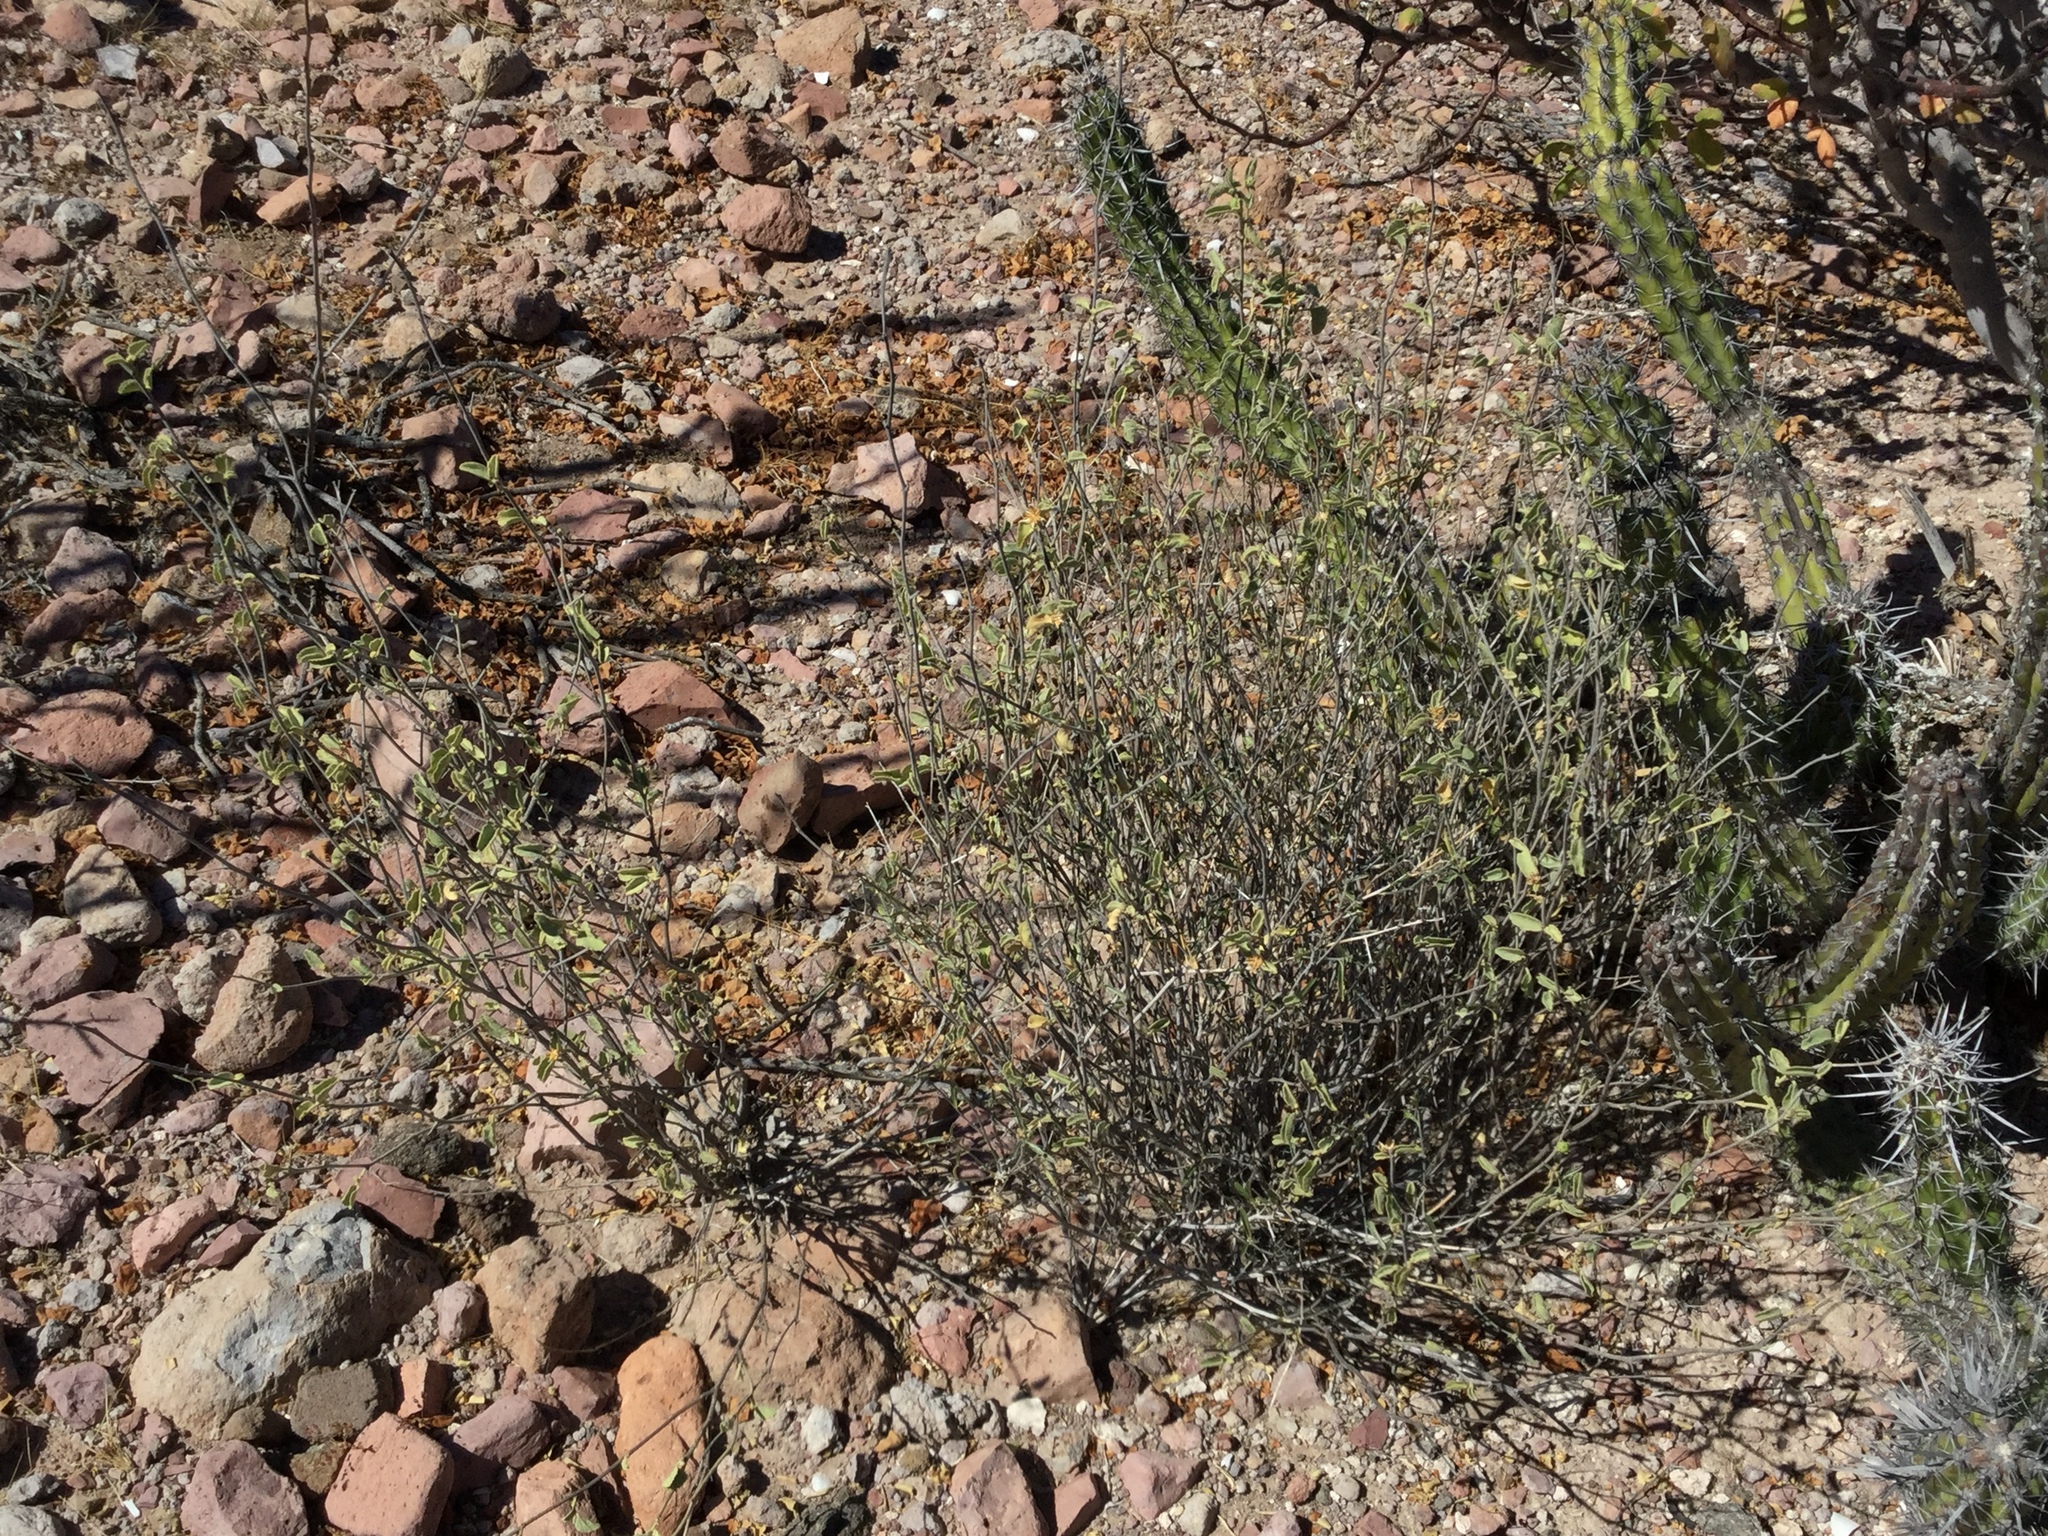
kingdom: Plantae
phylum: Tracheophyta
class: Magnoliopsida
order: Malvales
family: Malvaceae
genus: Hibiscus
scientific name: Hibiscus denudatus
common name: Paleface
